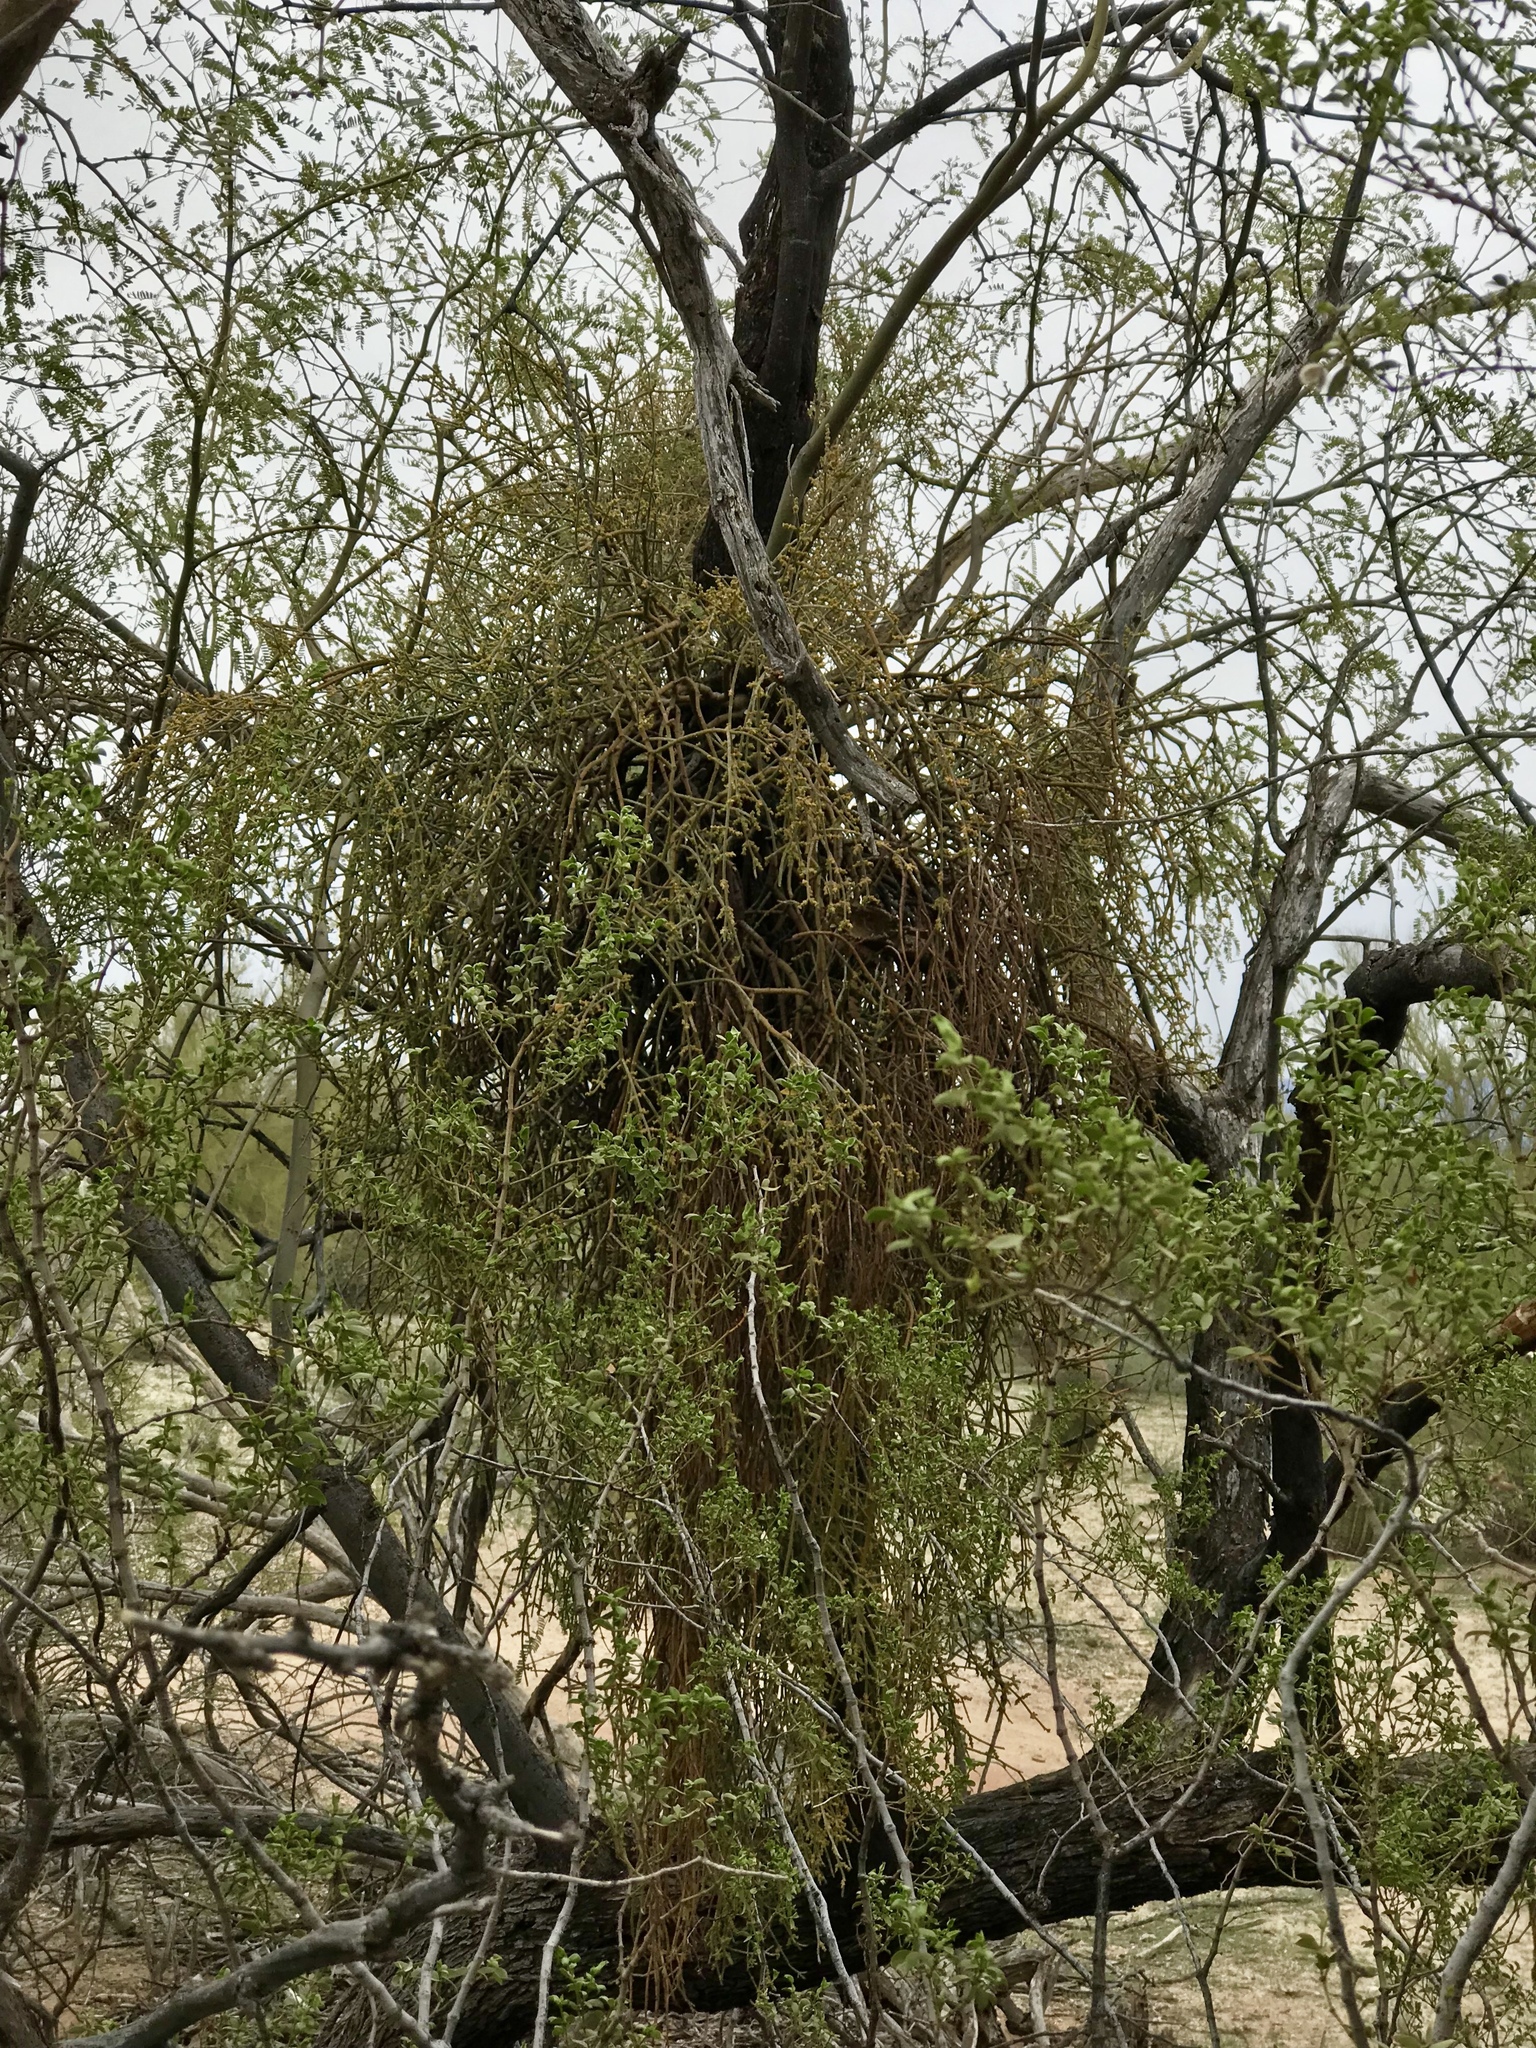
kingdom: Plantae
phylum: Tracheophyta
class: Magnoliopsida
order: Santalales
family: Viscaceae
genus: Phoradendron
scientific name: Phoradendron californicum
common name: Acacia mistletoe
